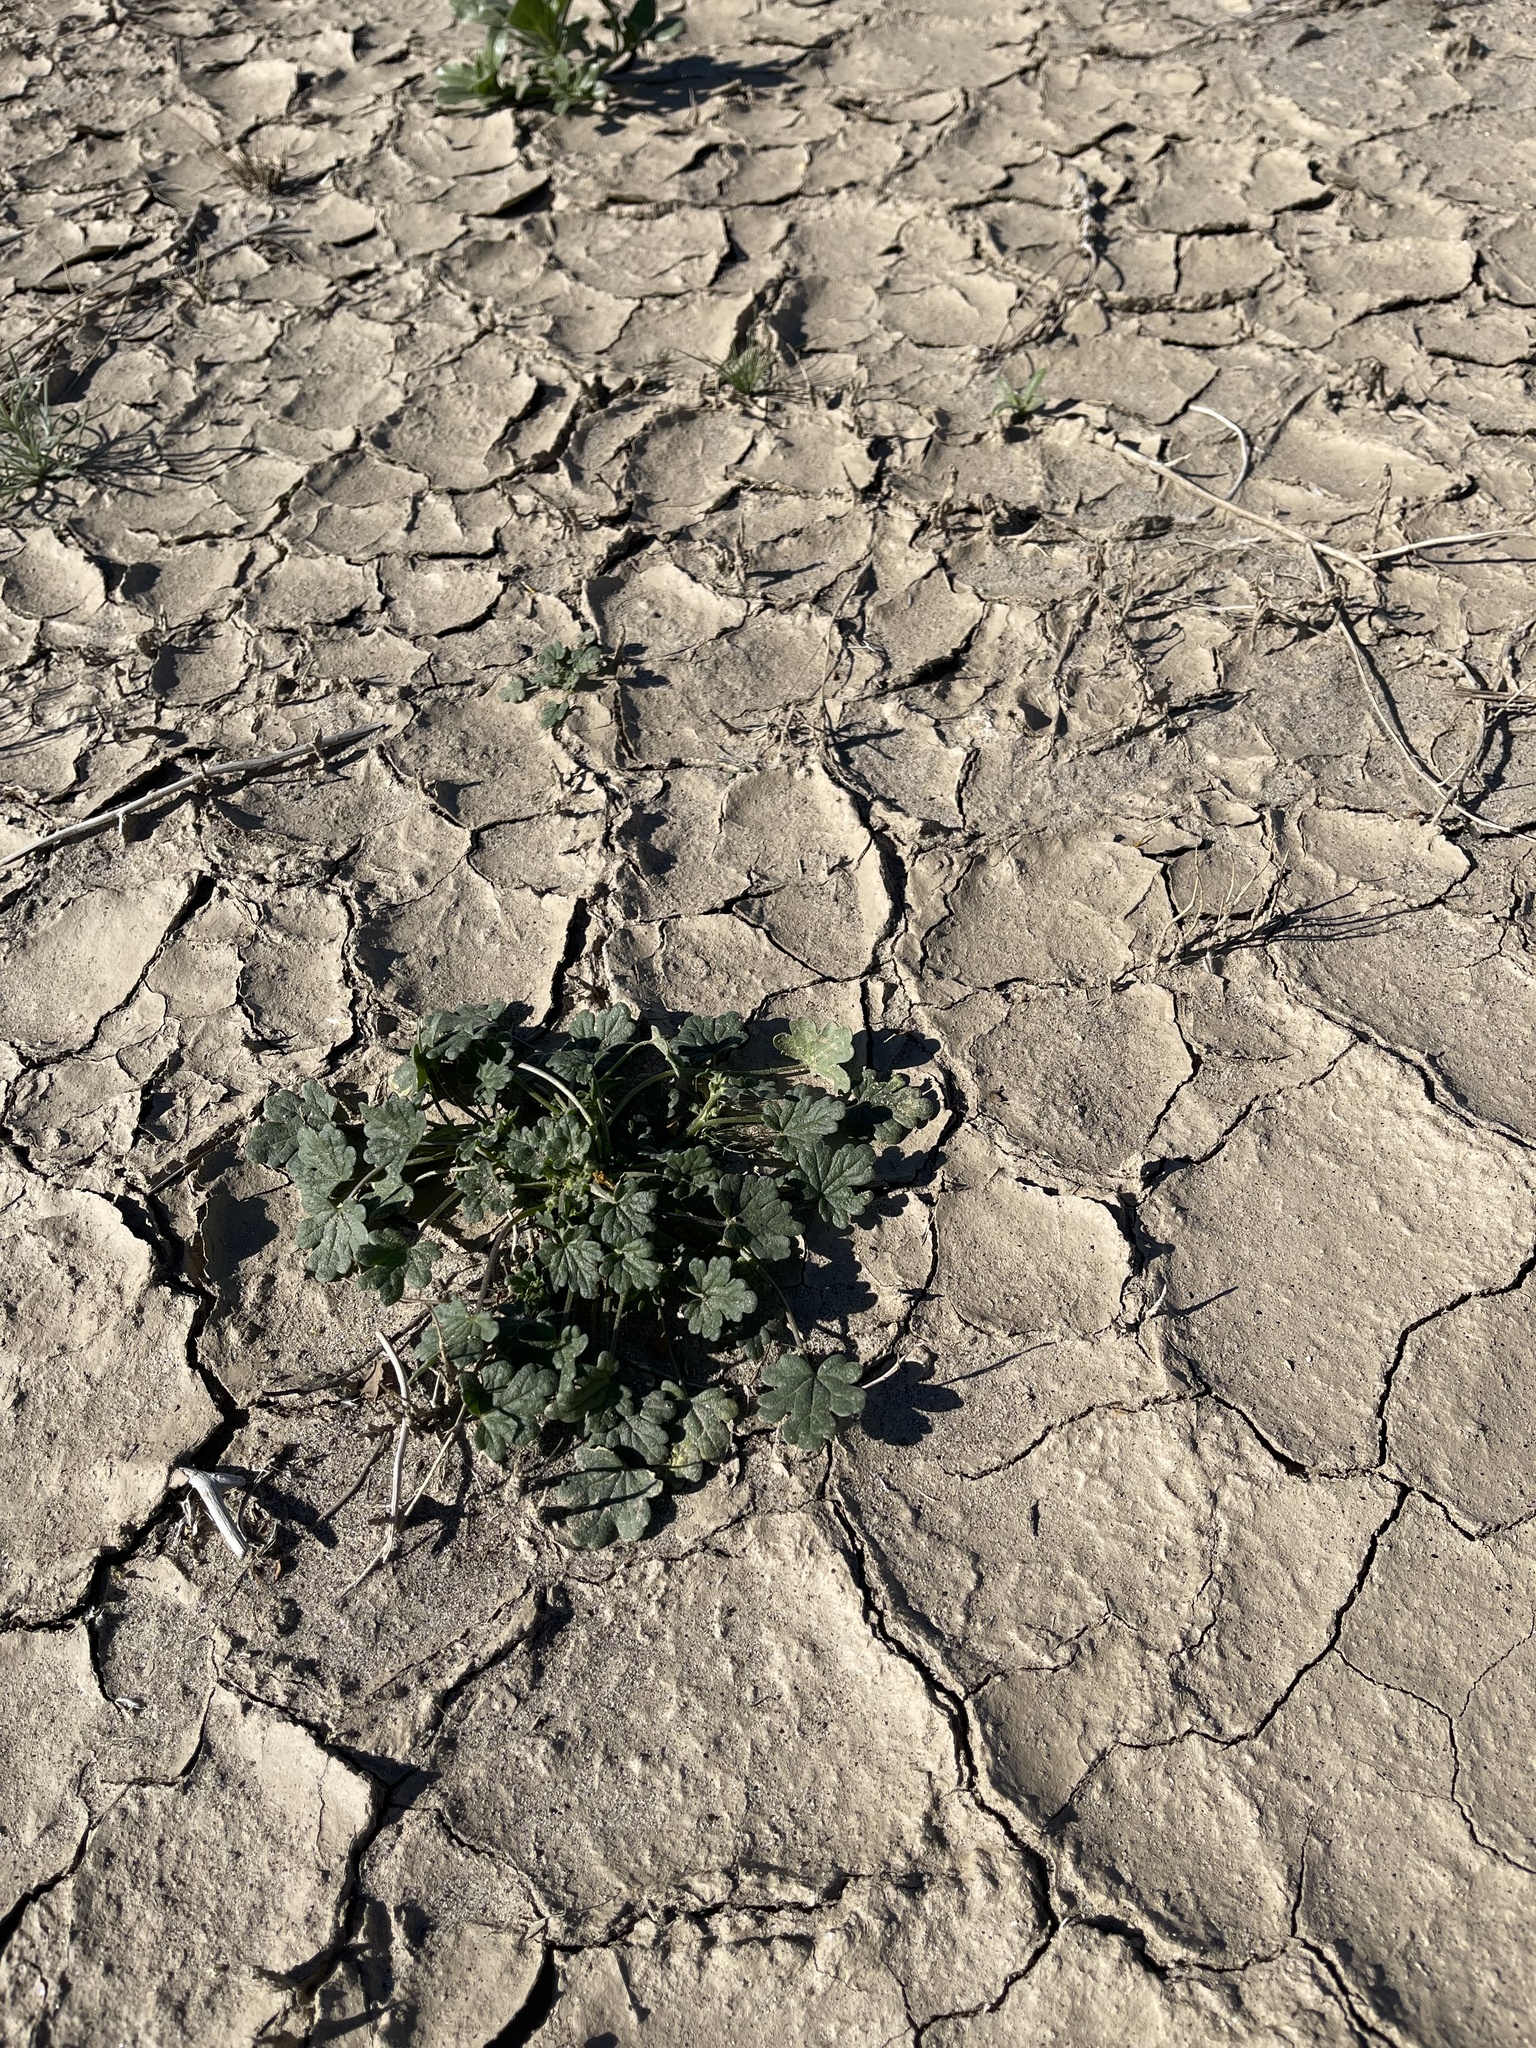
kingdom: Plantae
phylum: Tracheophyta
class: Magnoliopsida
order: Malvales
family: Malvaceae
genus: Eremalche
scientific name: Eremalche exilis
